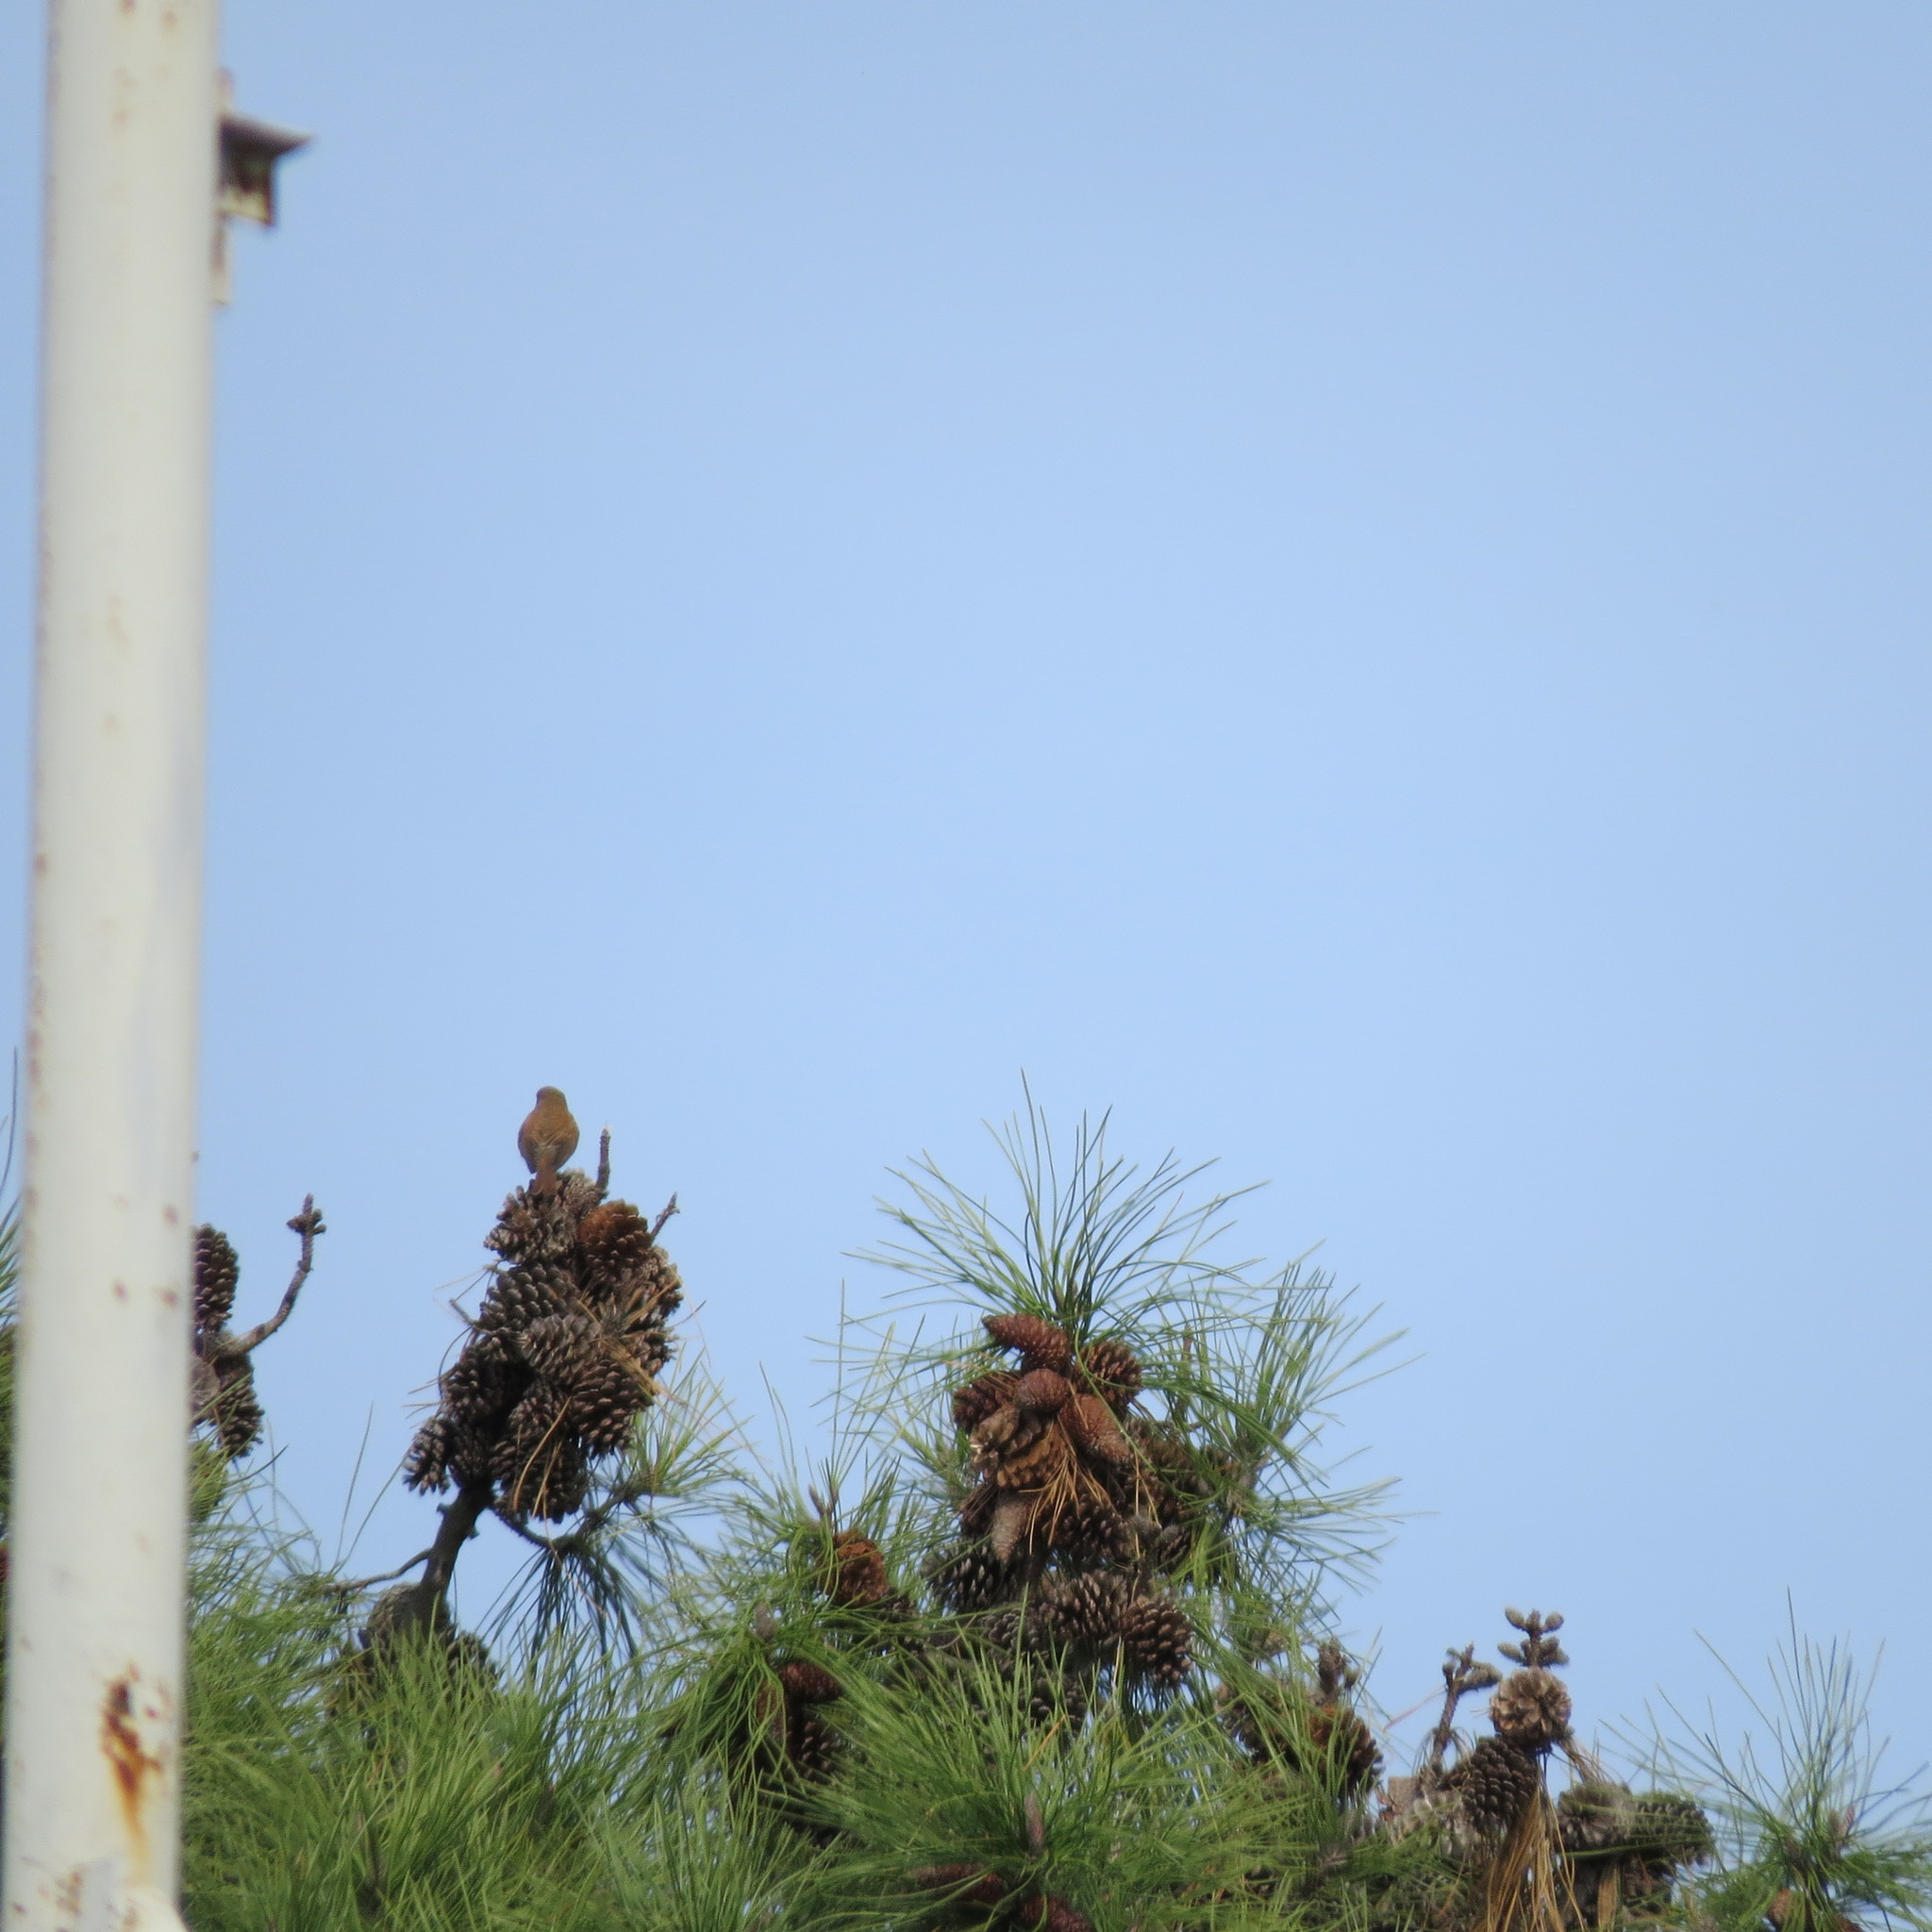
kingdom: Animalia
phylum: Chordata
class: Aves
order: Passeriformes
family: Laniidae
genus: Lanius
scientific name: Lanius collurio
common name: Red-backed shrike
